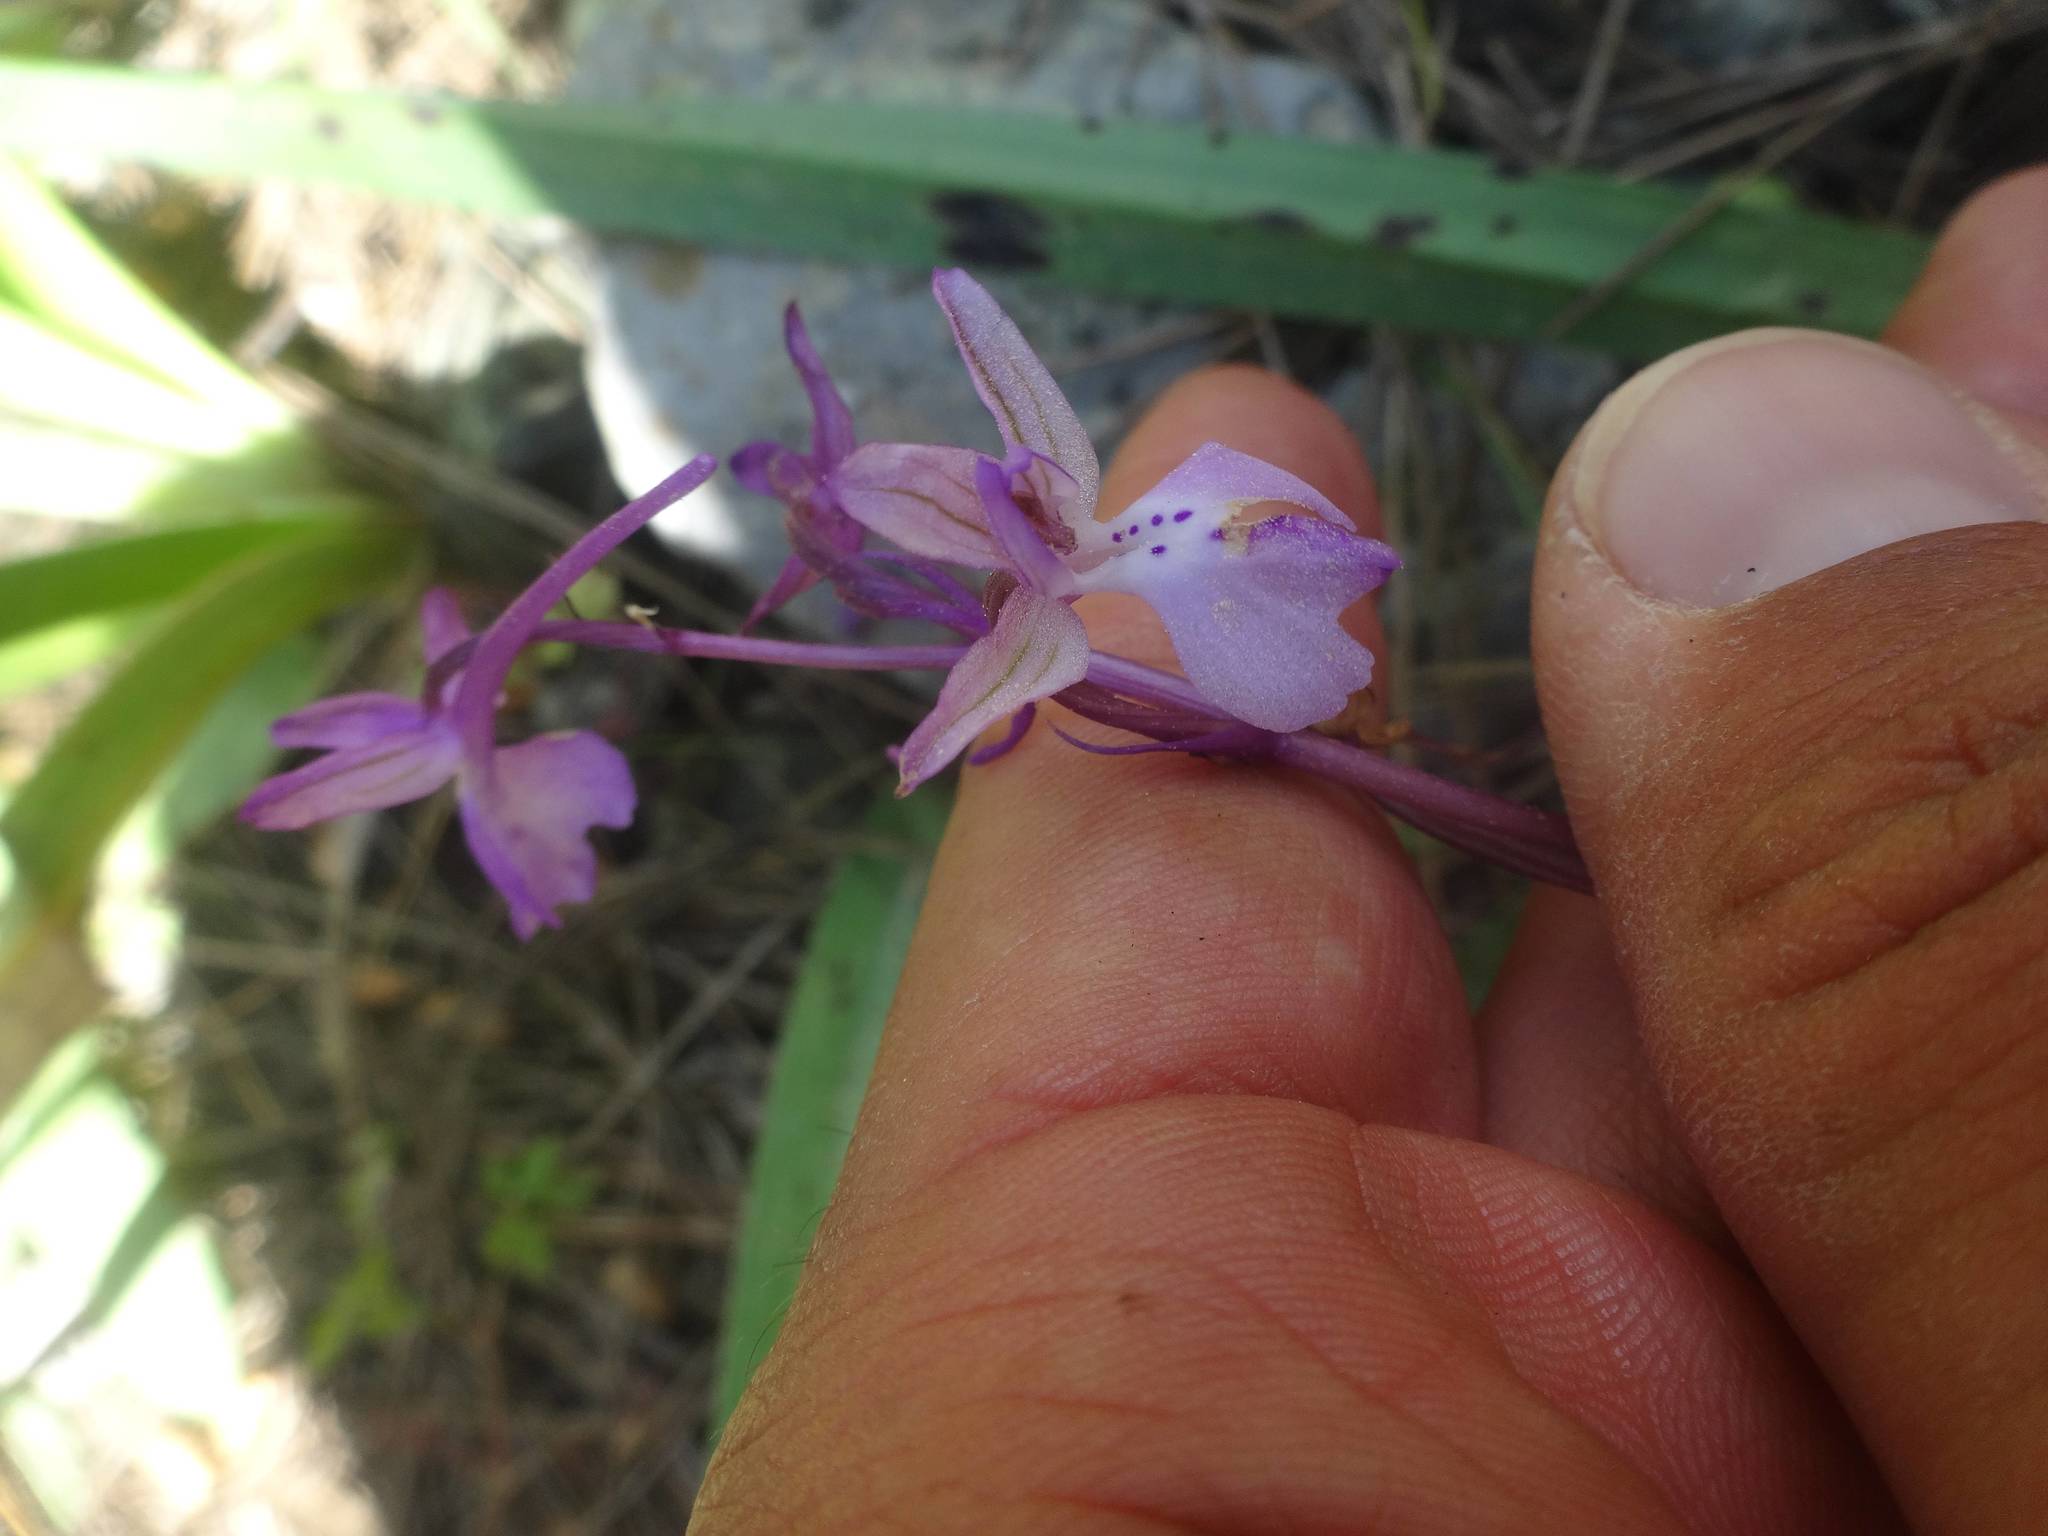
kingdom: Plantae
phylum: Tracheophyta
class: Liliopsida
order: Asparagales
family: Orchidaceae
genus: Orchis
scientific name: Orchis anatolica
